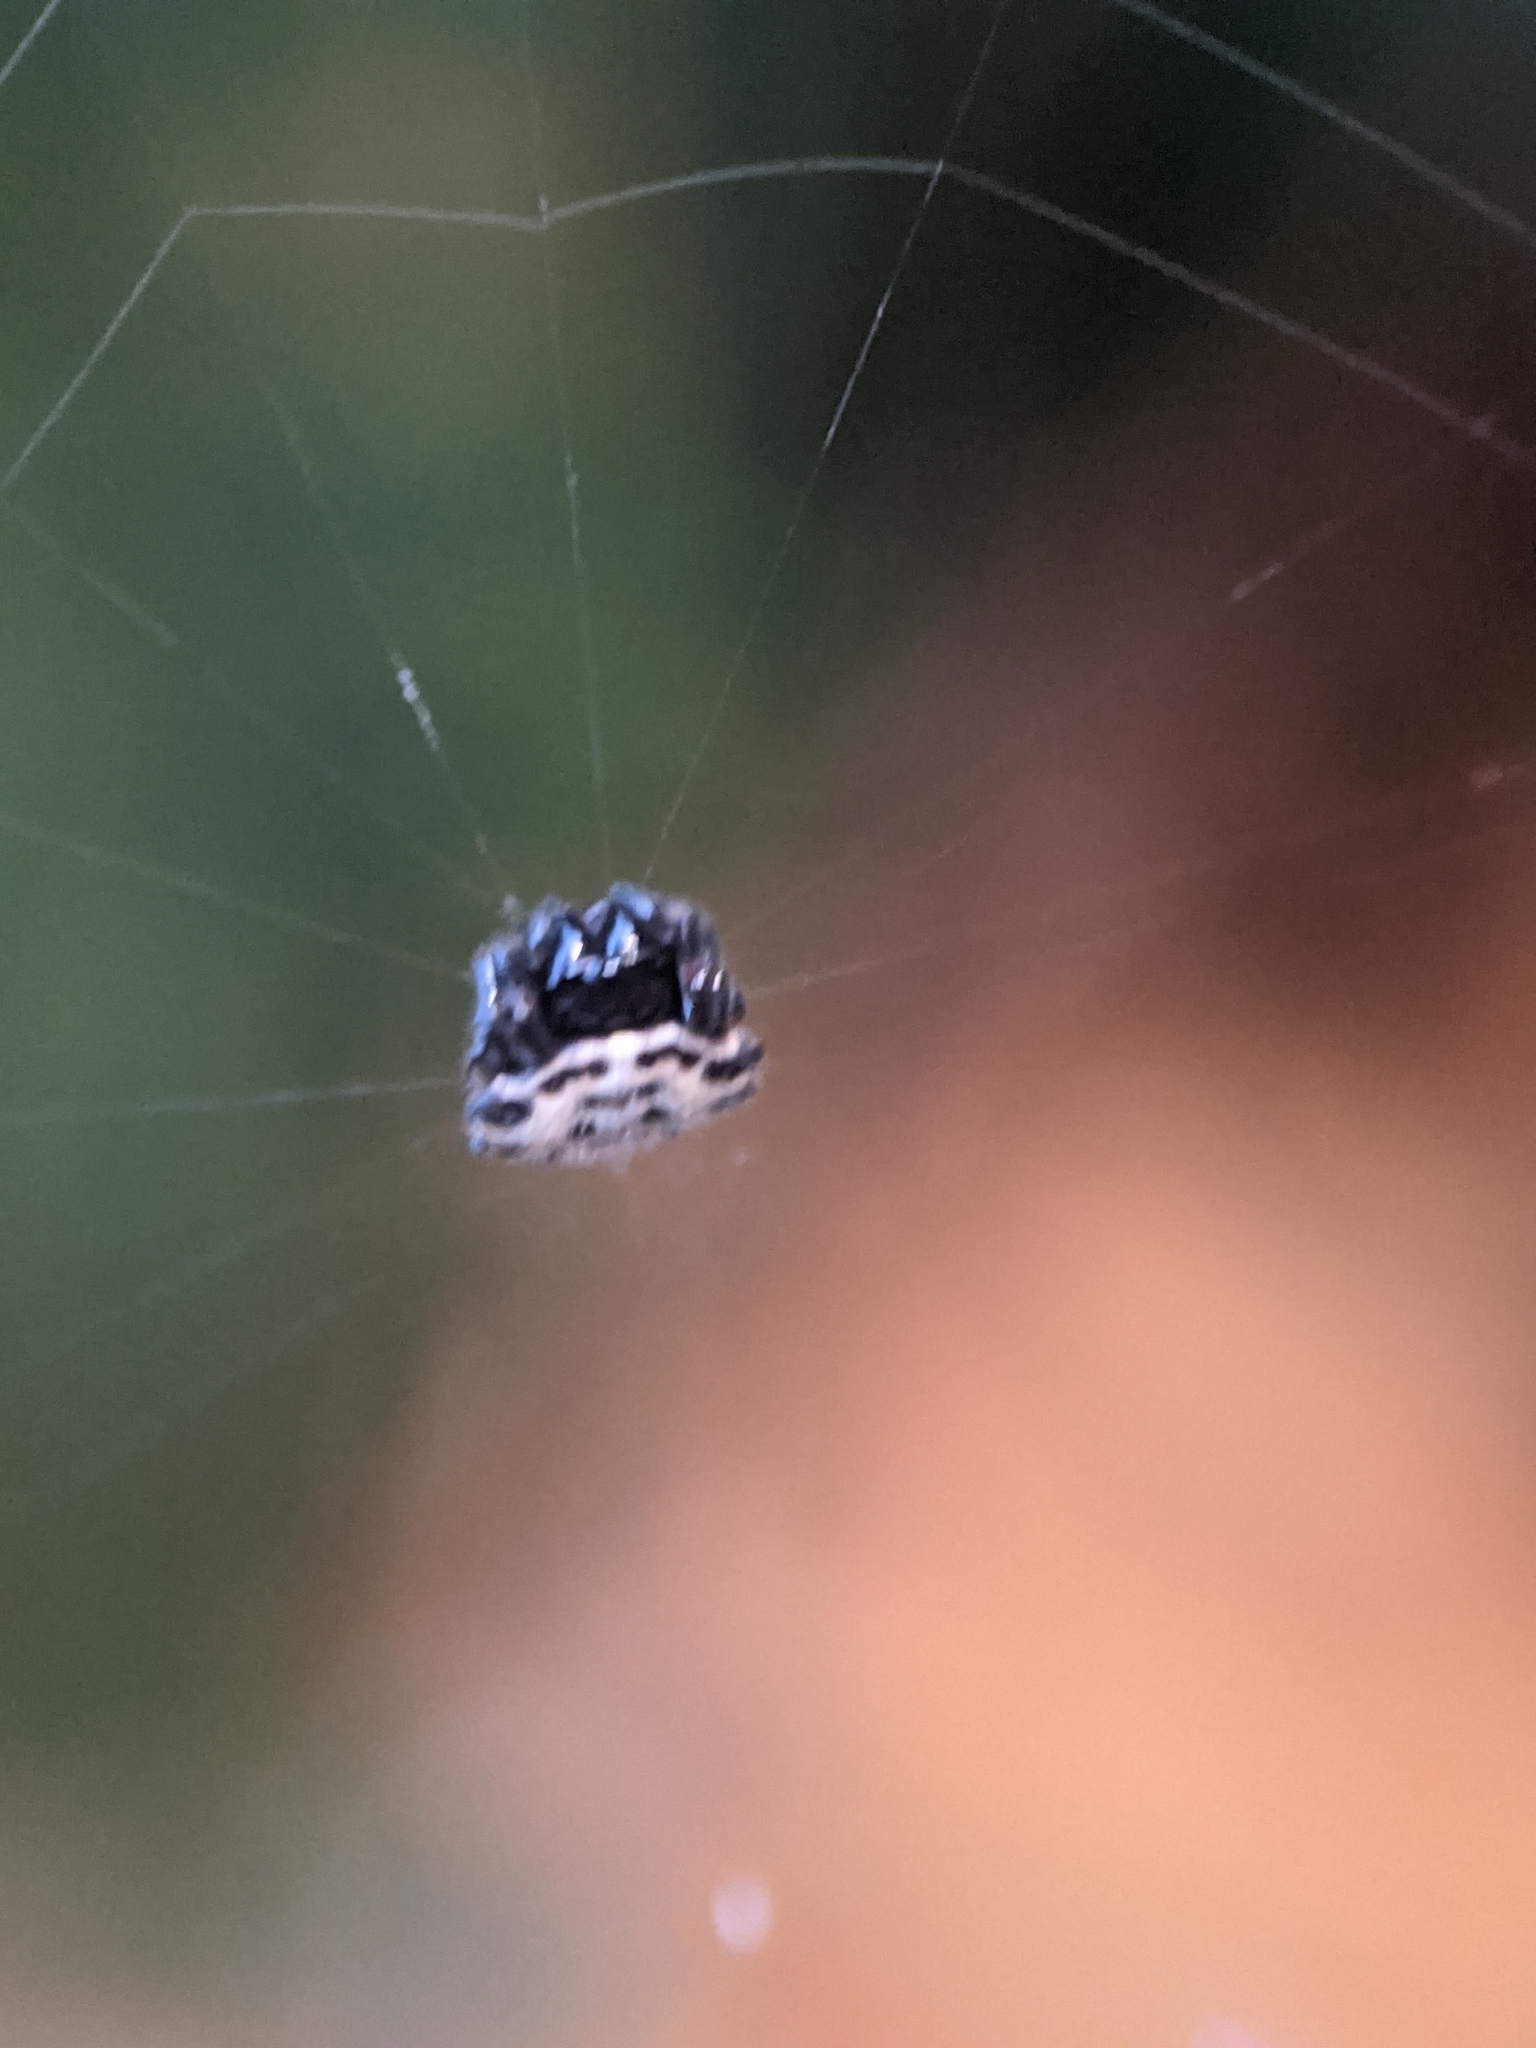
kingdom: Animalia
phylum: Arthropoda
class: Arachnida
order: Araneae
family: Araneidae
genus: Gasteracantha
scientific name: Gasteracantha cancriformis
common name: Orb weavers
